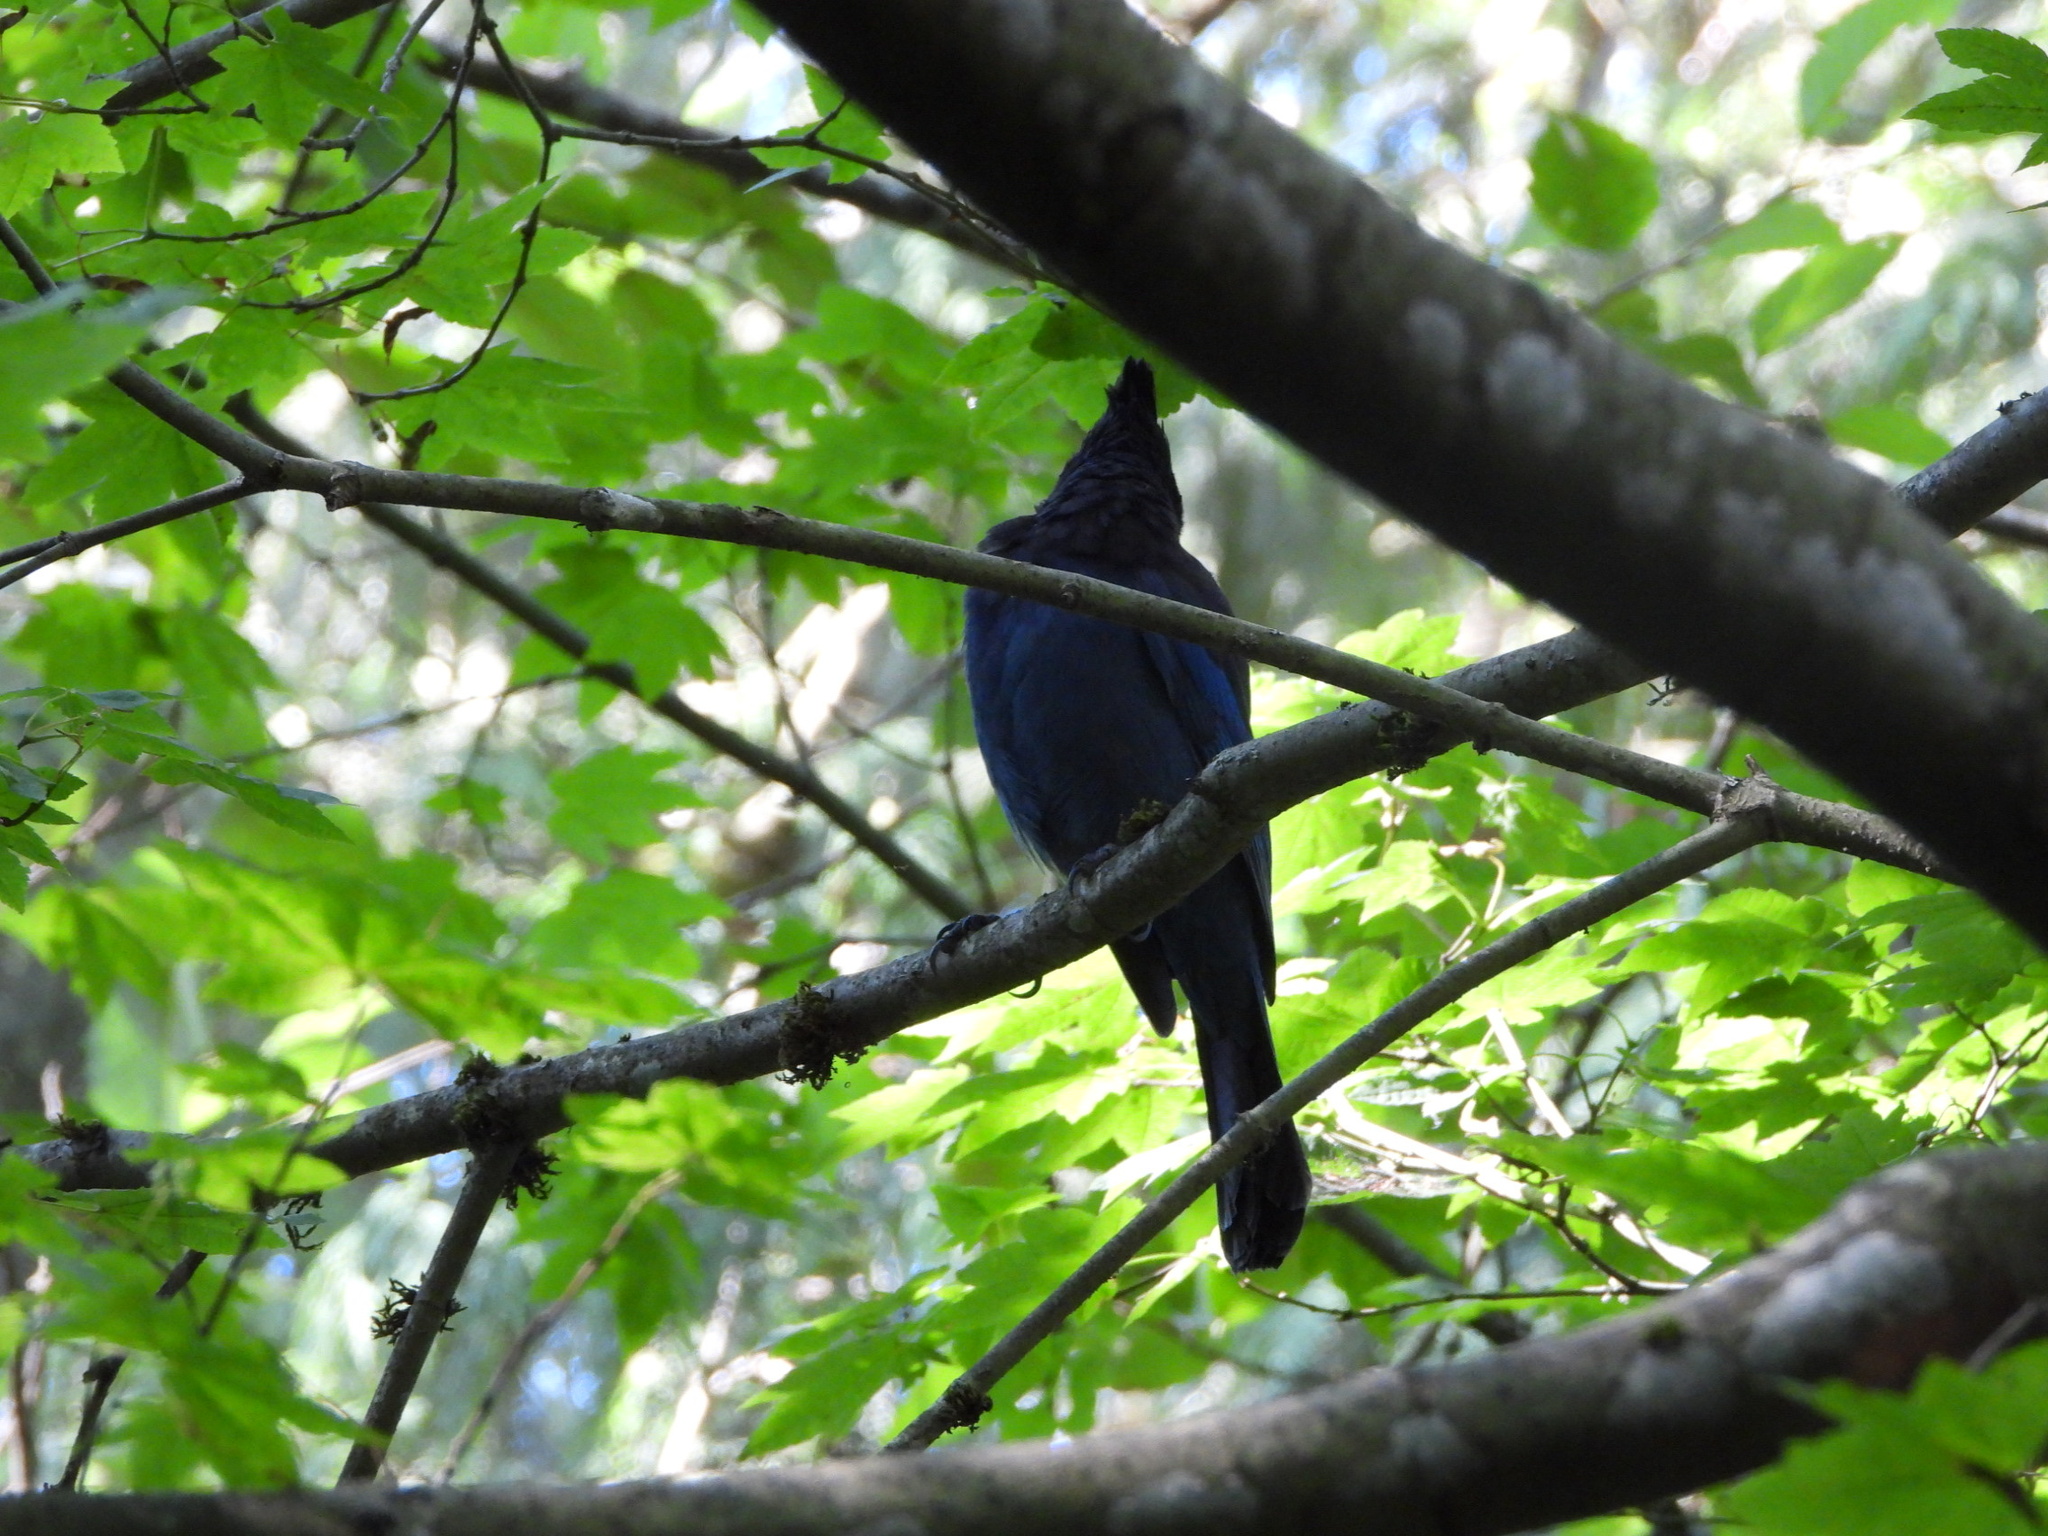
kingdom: Animalia
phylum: Chordata
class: Aves
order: Passeriformes
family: Corvidae
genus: Cyanocitta
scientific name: Cyanocitta stelleri
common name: Steller's jay
